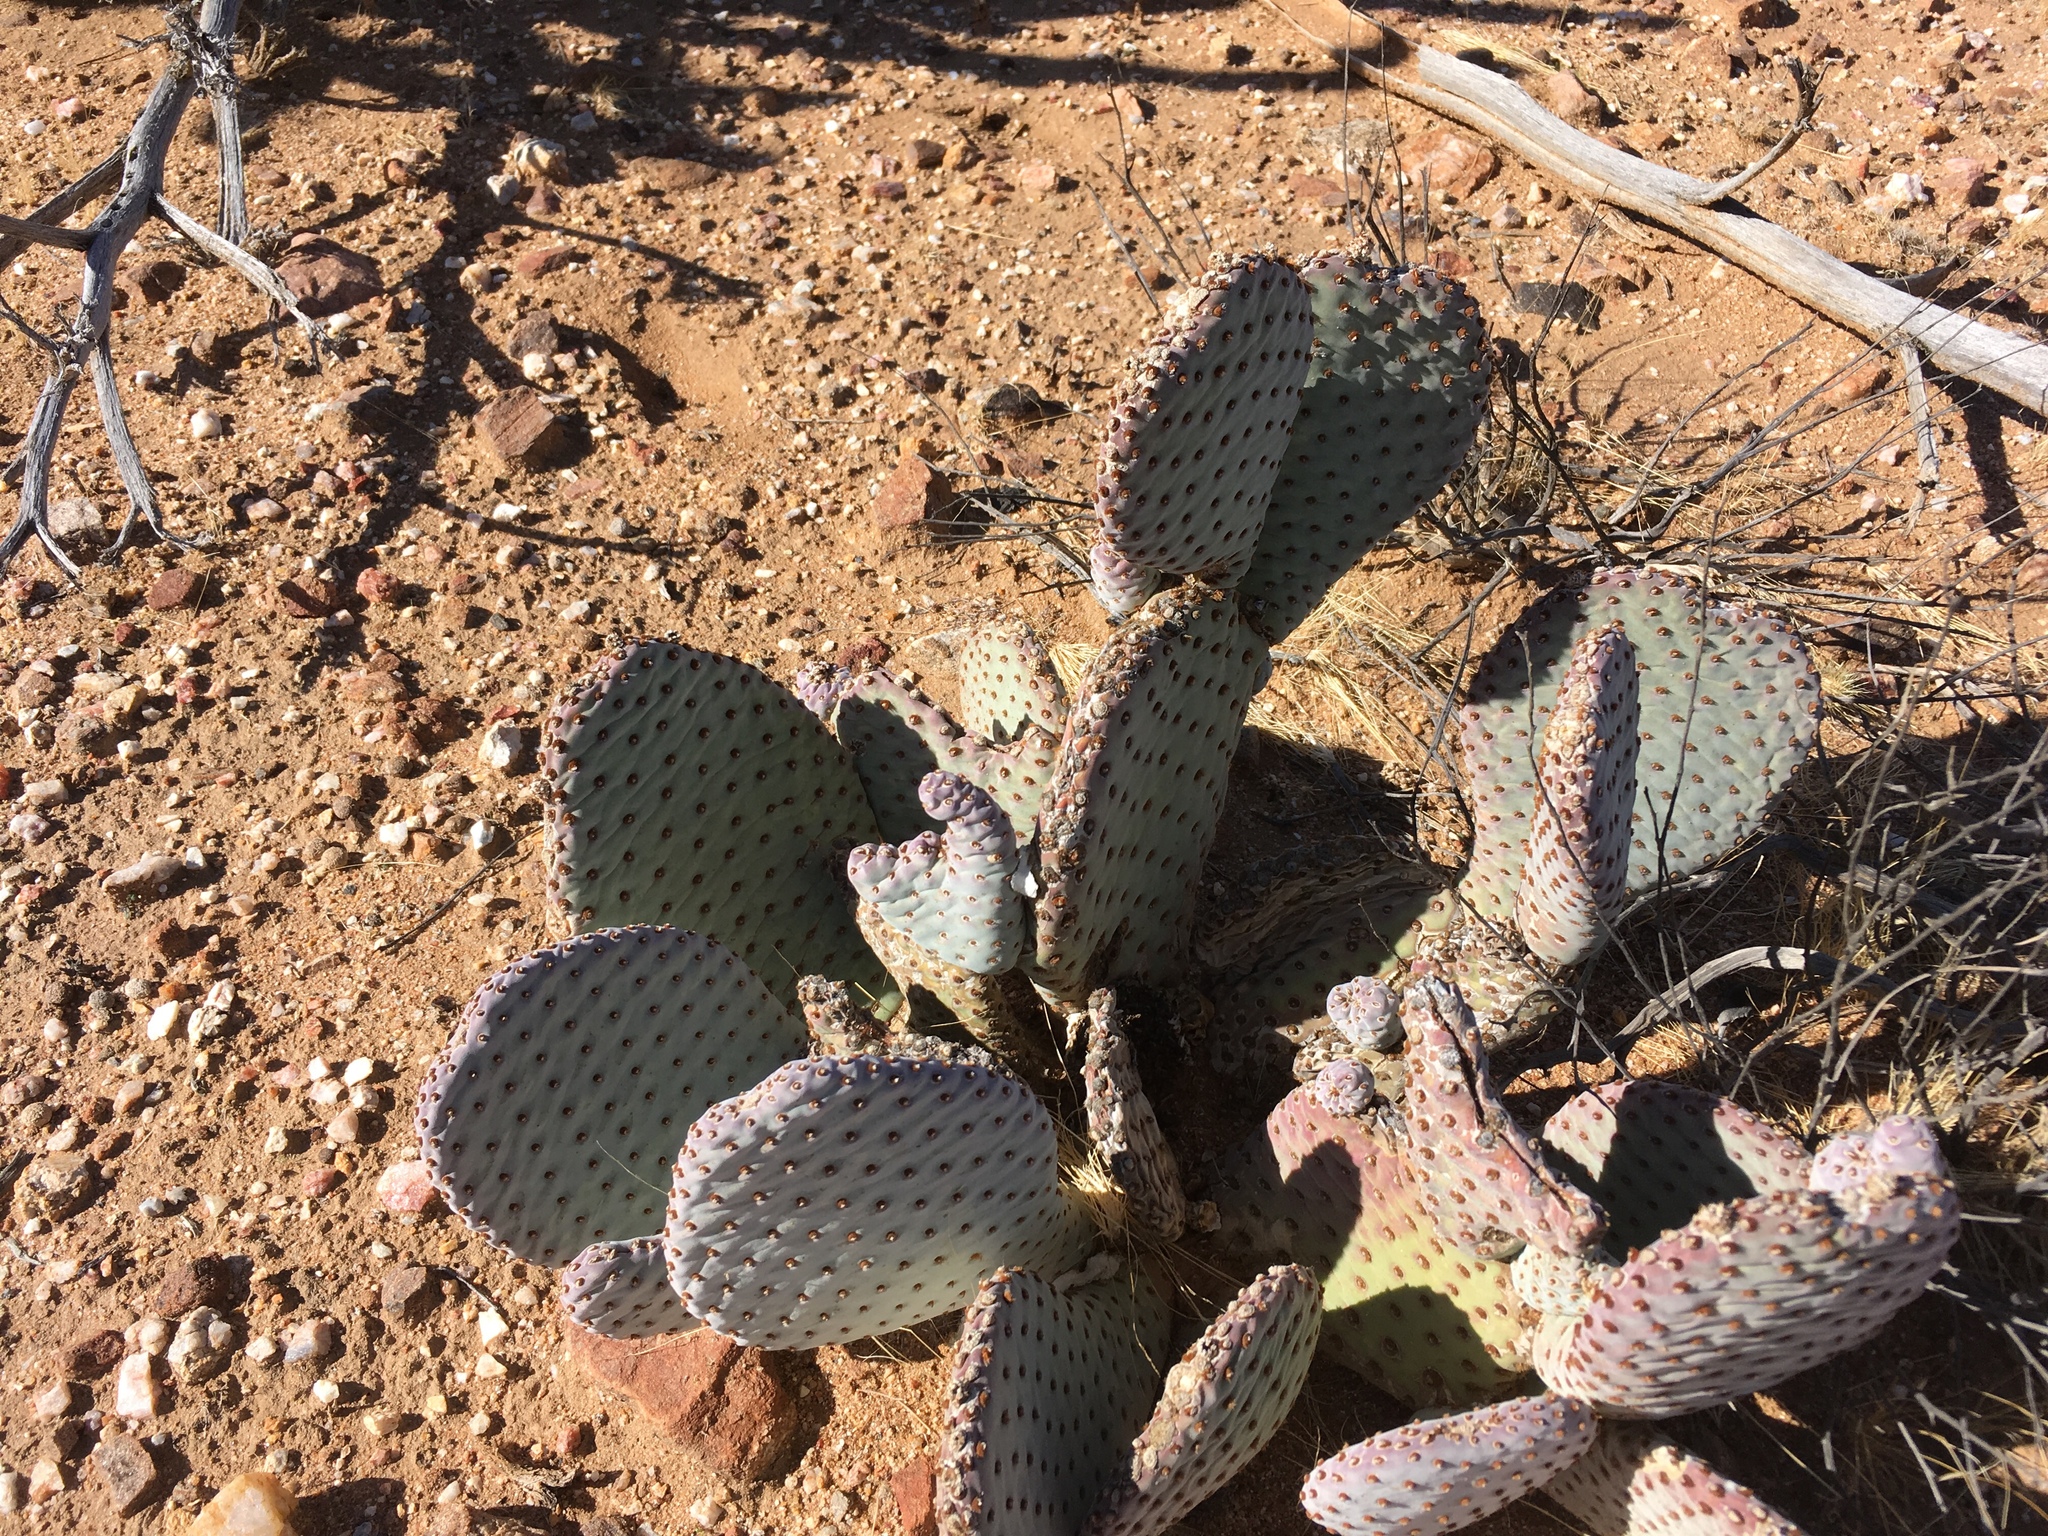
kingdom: Plantae
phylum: Tracheophyta
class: Magnoliopsida
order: Caryophyllales
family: Cactaceae
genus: Opuntia
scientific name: Opuntia basilaris
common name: Beavertail prickly-pear
